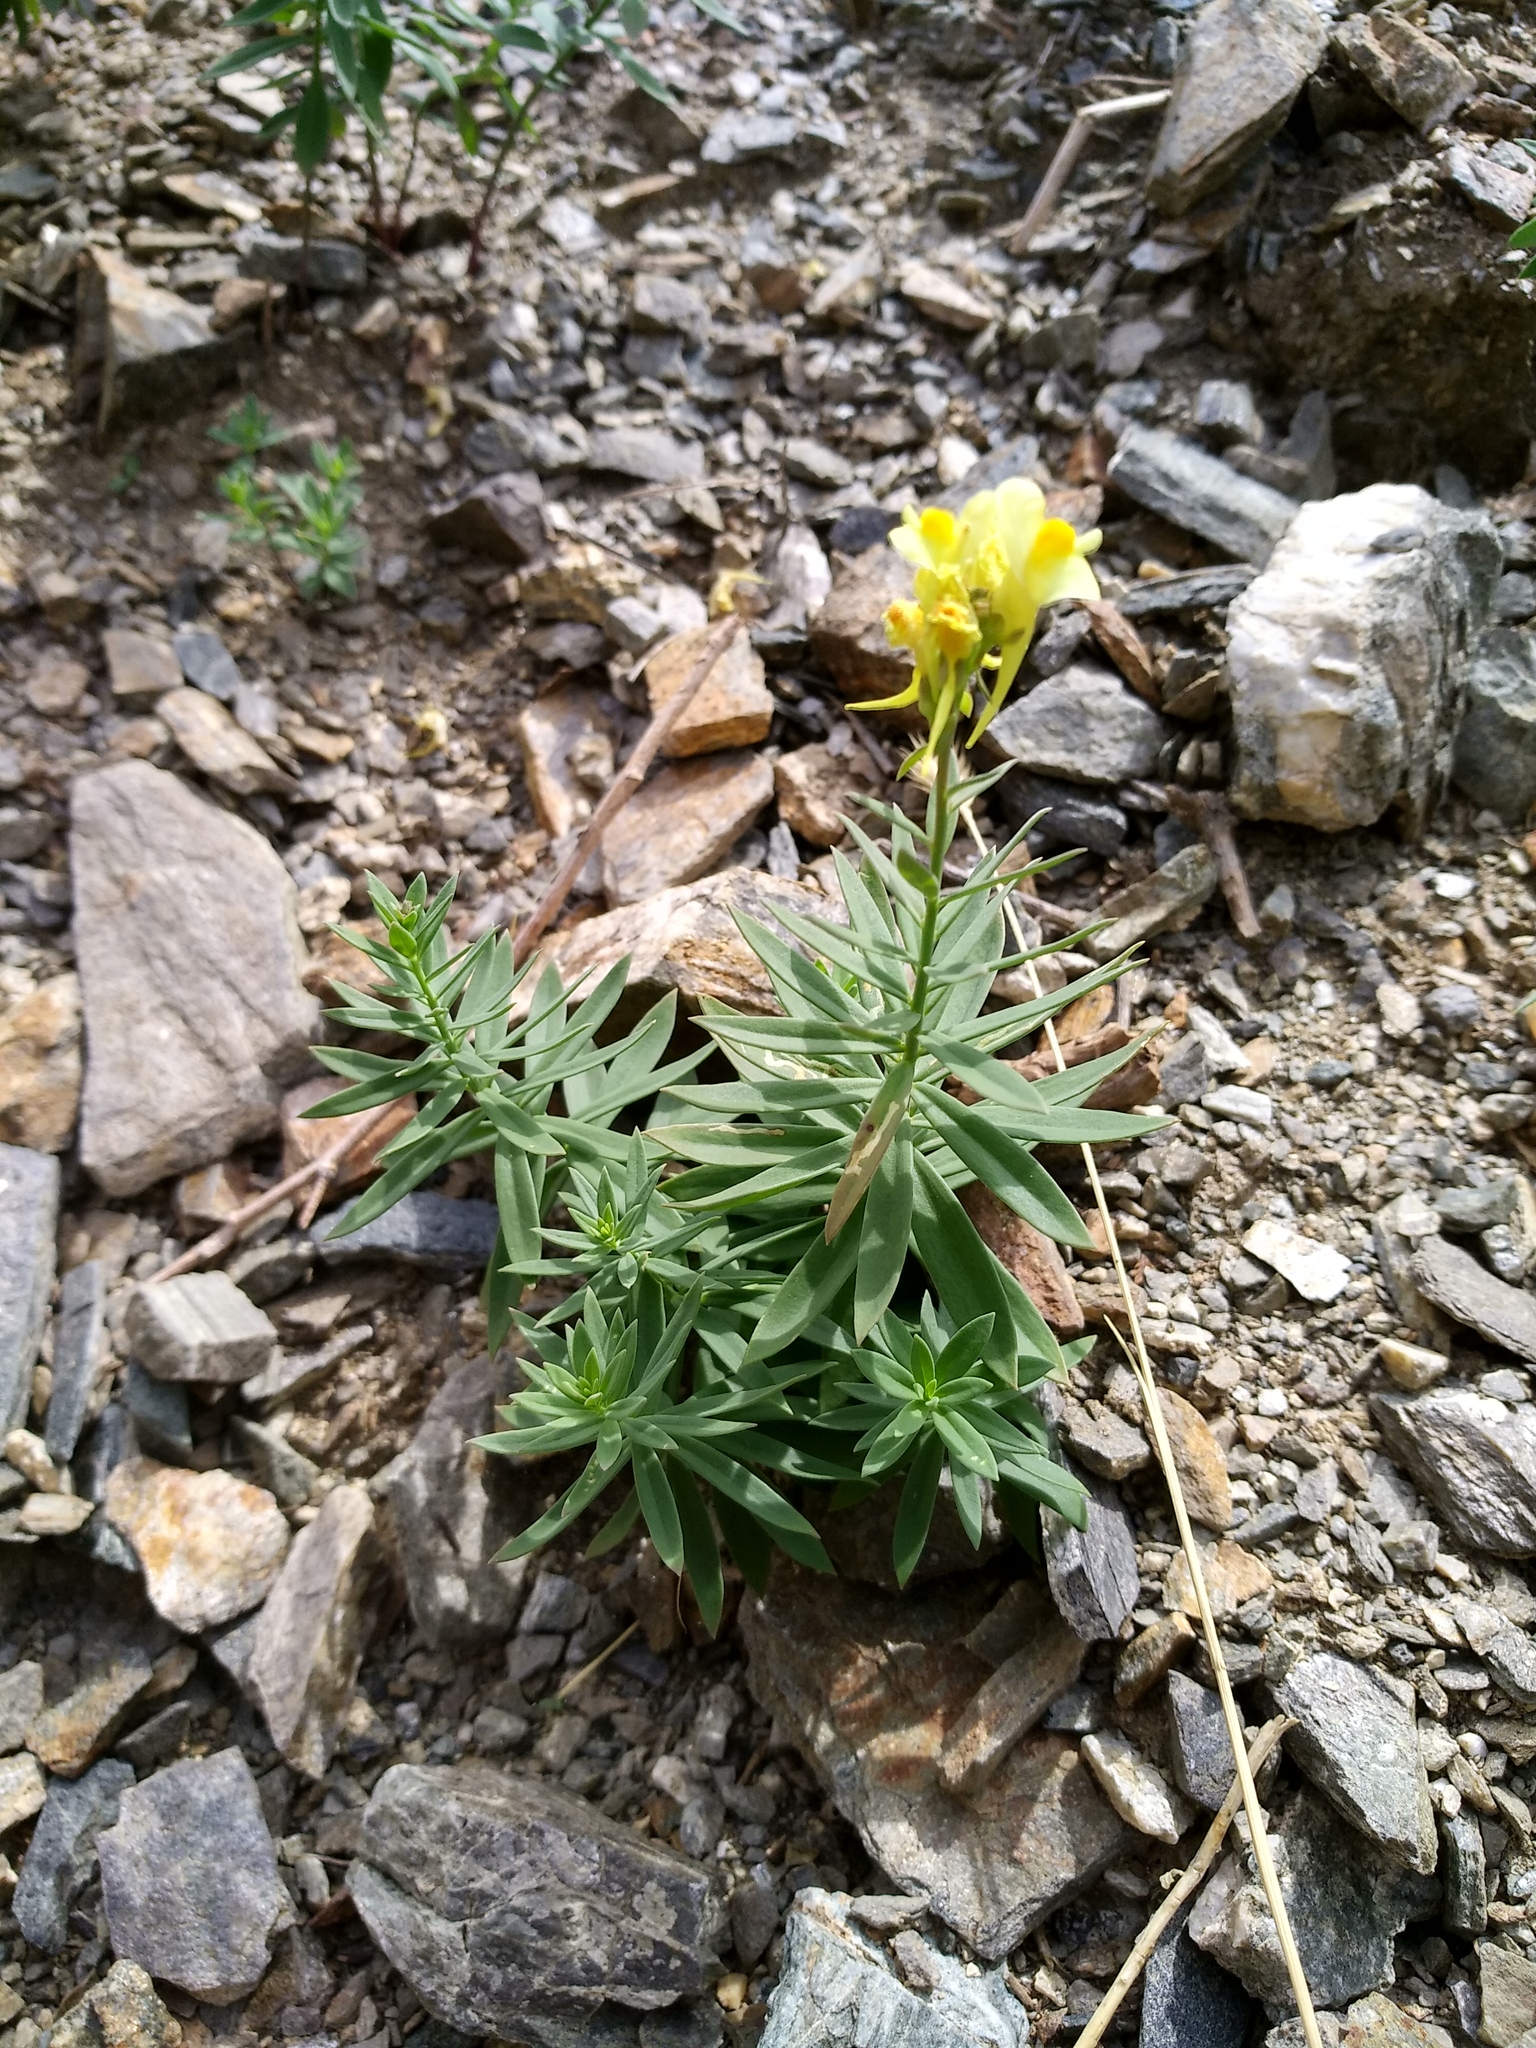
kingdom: Plantae
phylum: Tracheophyta
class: Magnoliopsida
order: Lamiales
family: Plantaginaceae
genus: Linaria
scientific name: Linaria acutiloba
